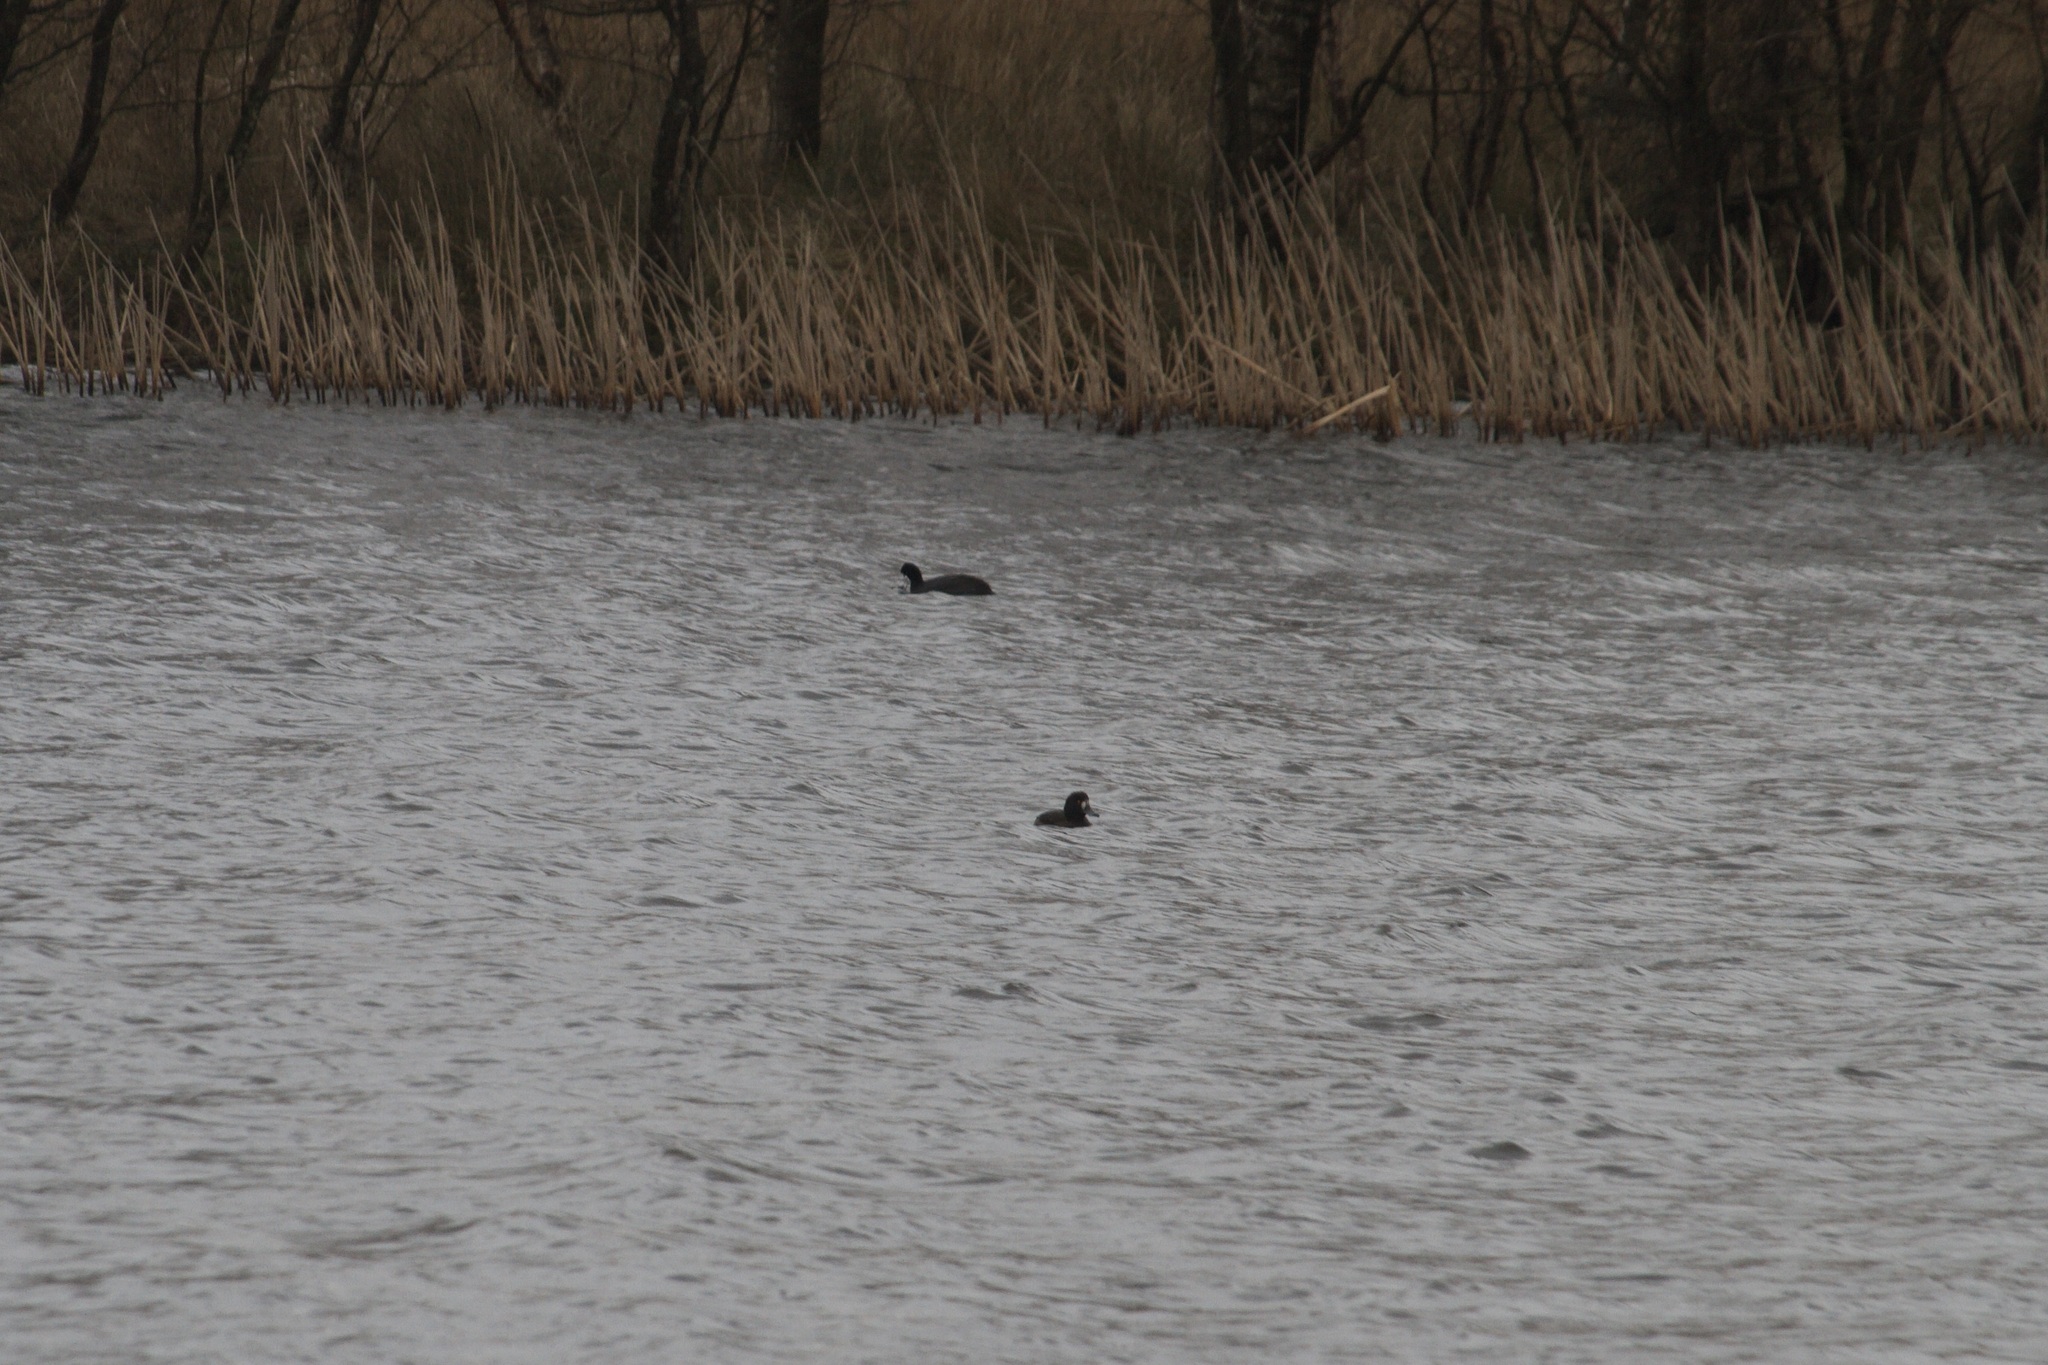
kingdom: Animalia
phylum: Chordata
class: Aves
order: Anseriformes
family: Anatidae
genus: Aythya
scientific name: Aythya fuligula
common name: Tufted duck
